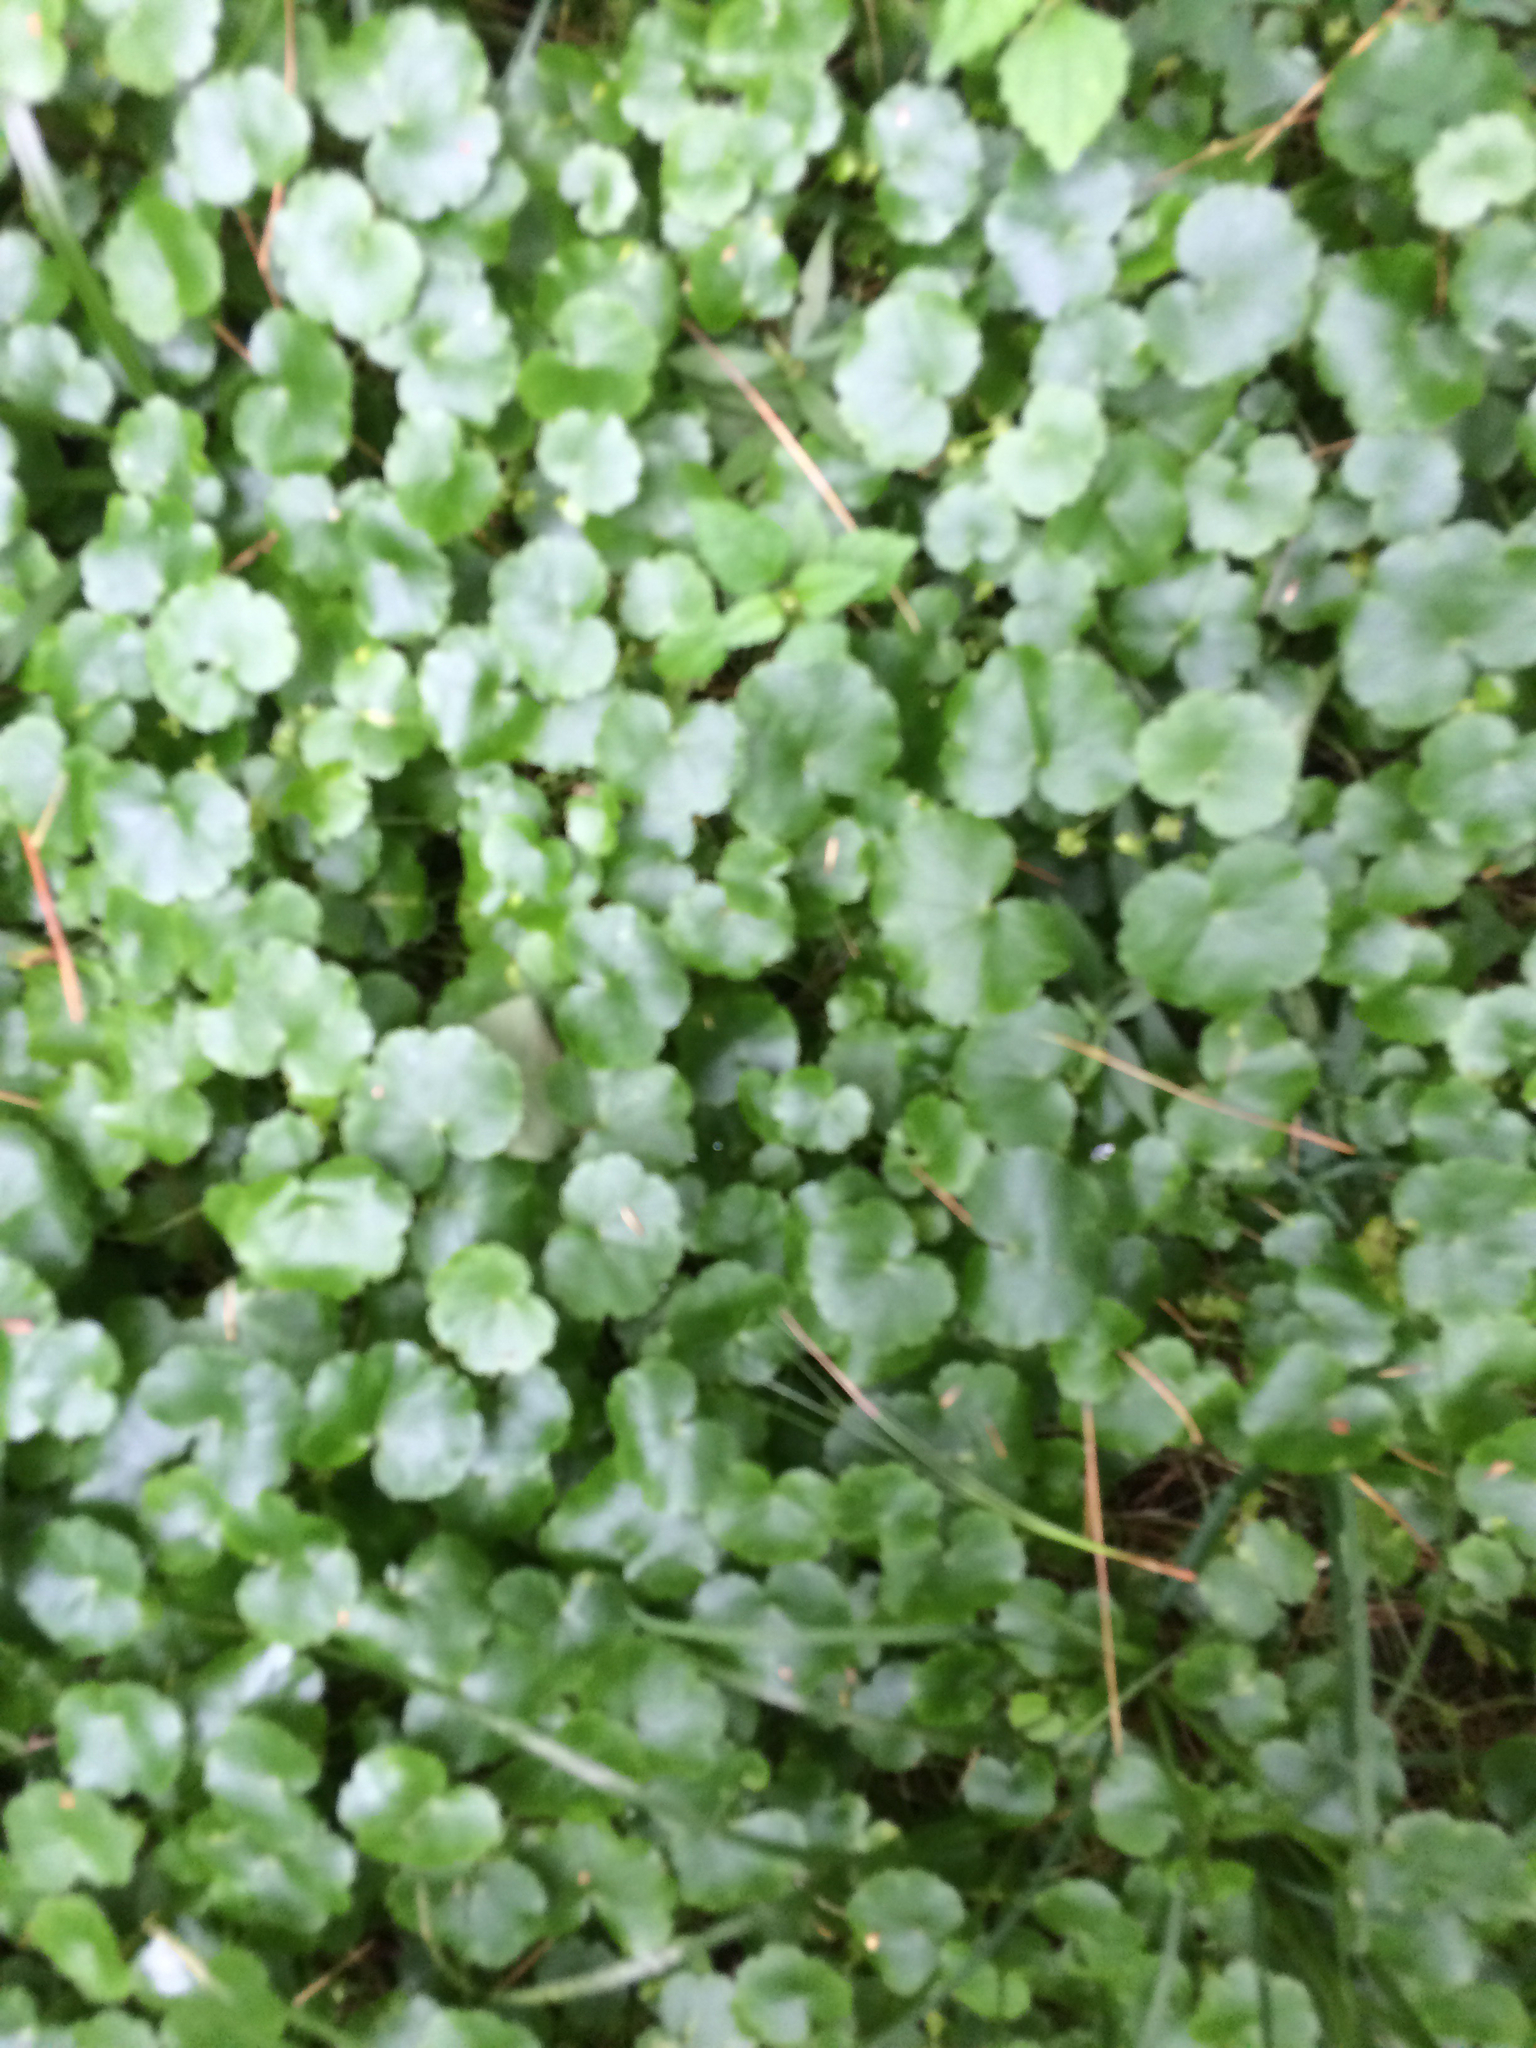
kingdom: Plantae
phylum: Tracheophyta
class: Magnoliopsida
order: Apiales
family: Araliaceae
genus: Hydrocotyle
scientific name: Hydrocotyle sibthorpioides
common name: Lawn marshpennywort
